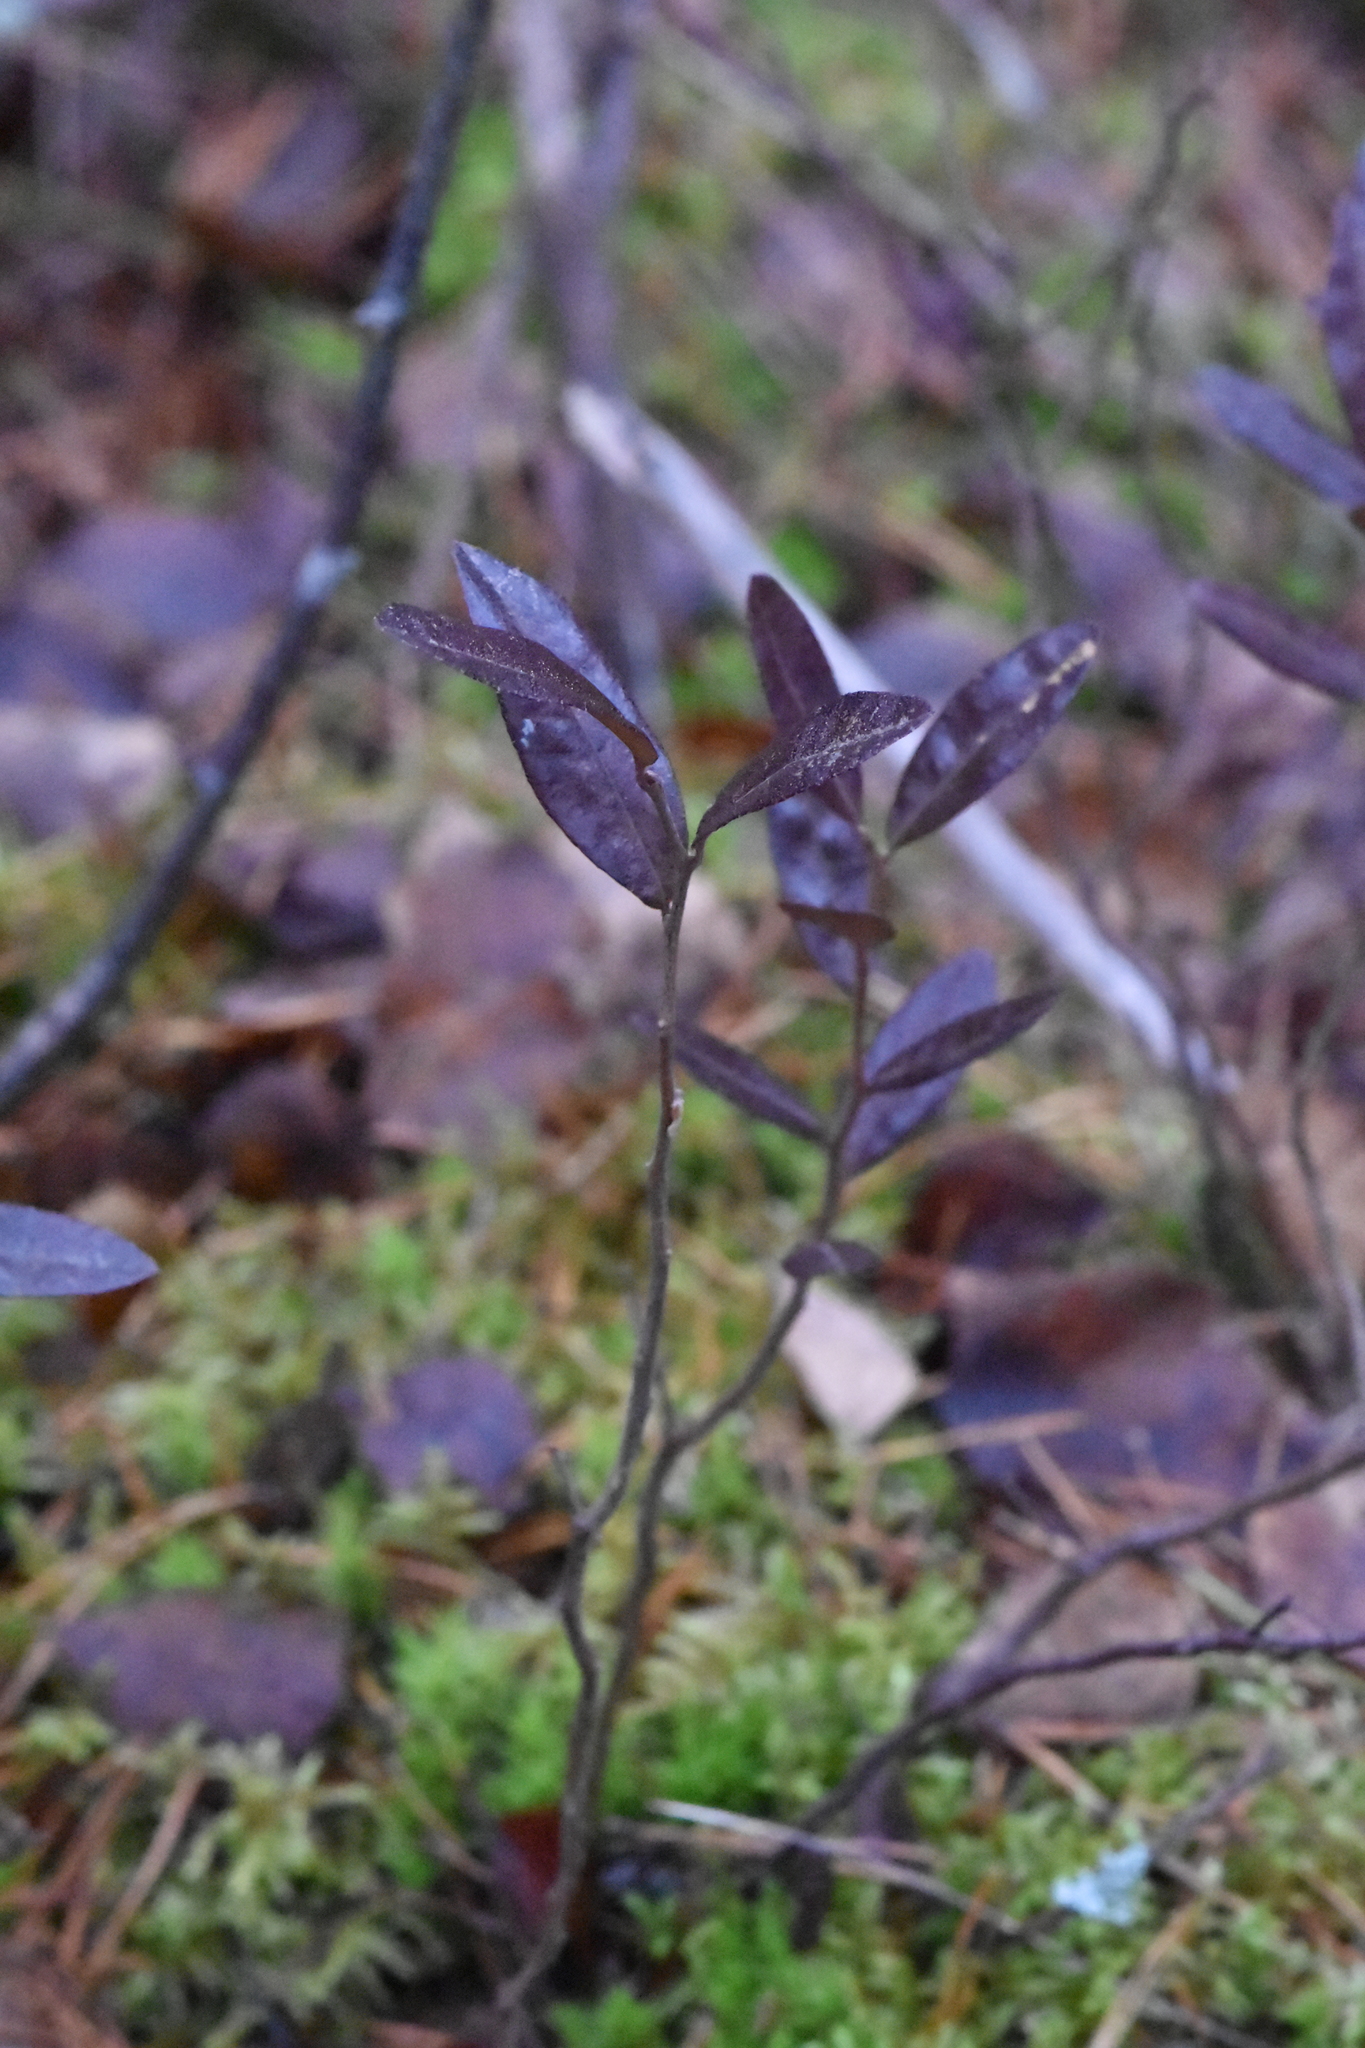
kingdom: Plantae
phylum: Tracheophyta
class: Magnoliopsida
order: Ericales
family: Ericaceae
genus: Chamaedaphne
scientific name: Chamaedaphne calyculata
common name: Leatherleaf
